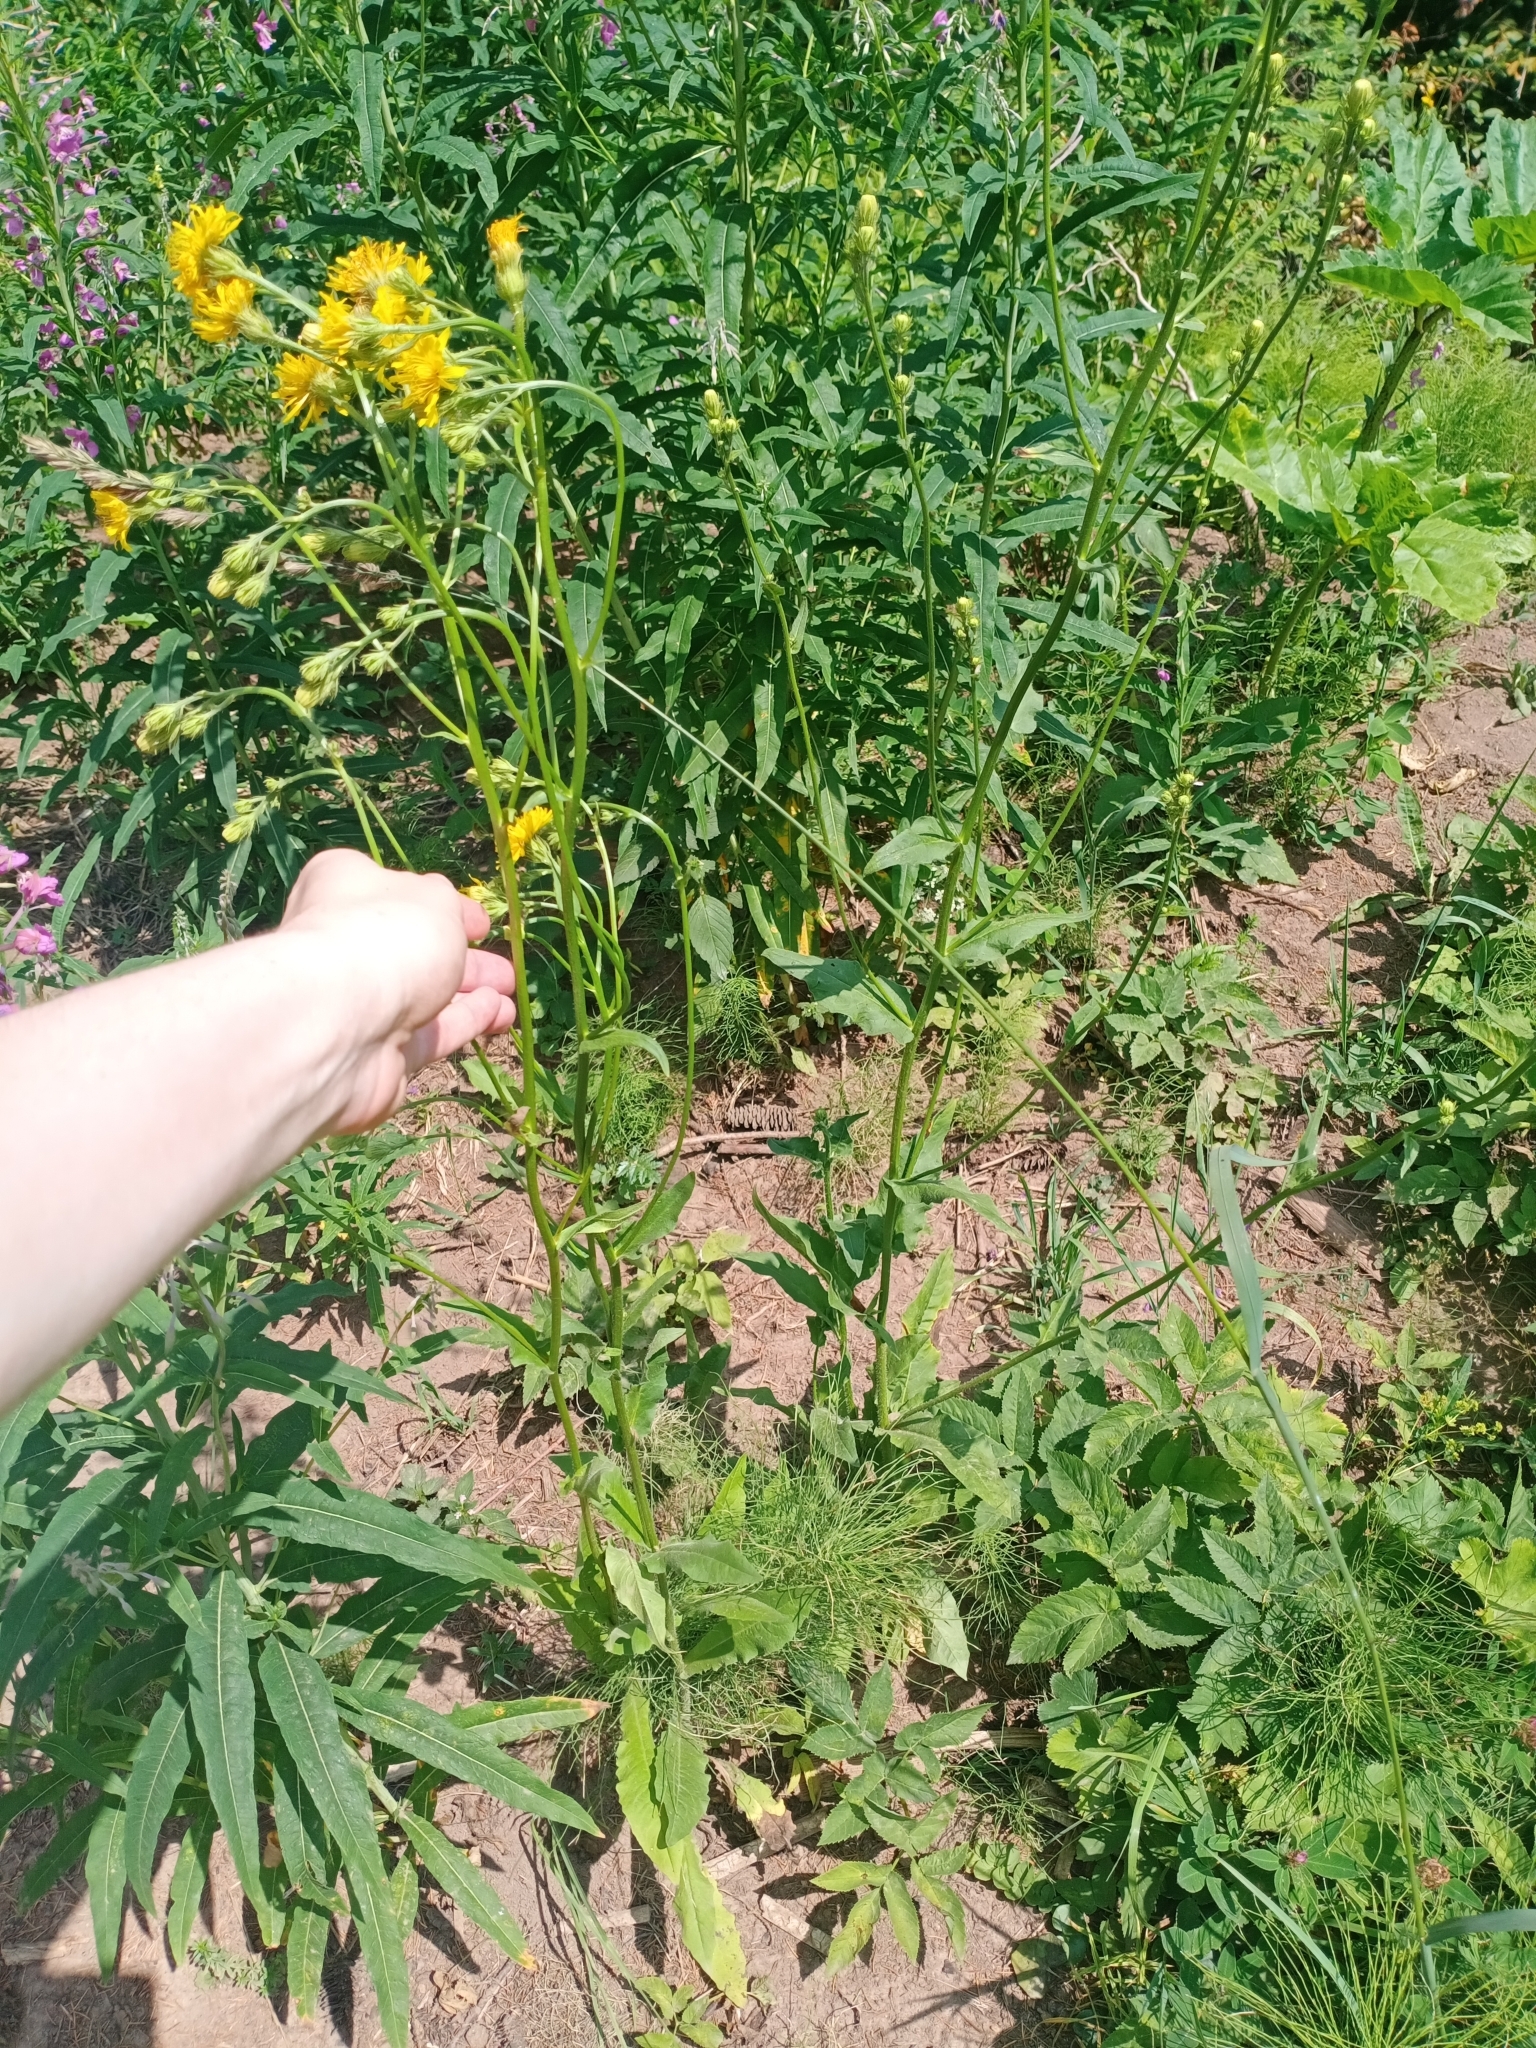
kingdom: Plantae
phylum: Tracheophyta
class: Magnoliopsida
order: Asterales
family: Asteraceae
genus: Sonchus
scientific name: Sonchus arvensis
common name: Perennial sow-thistle
